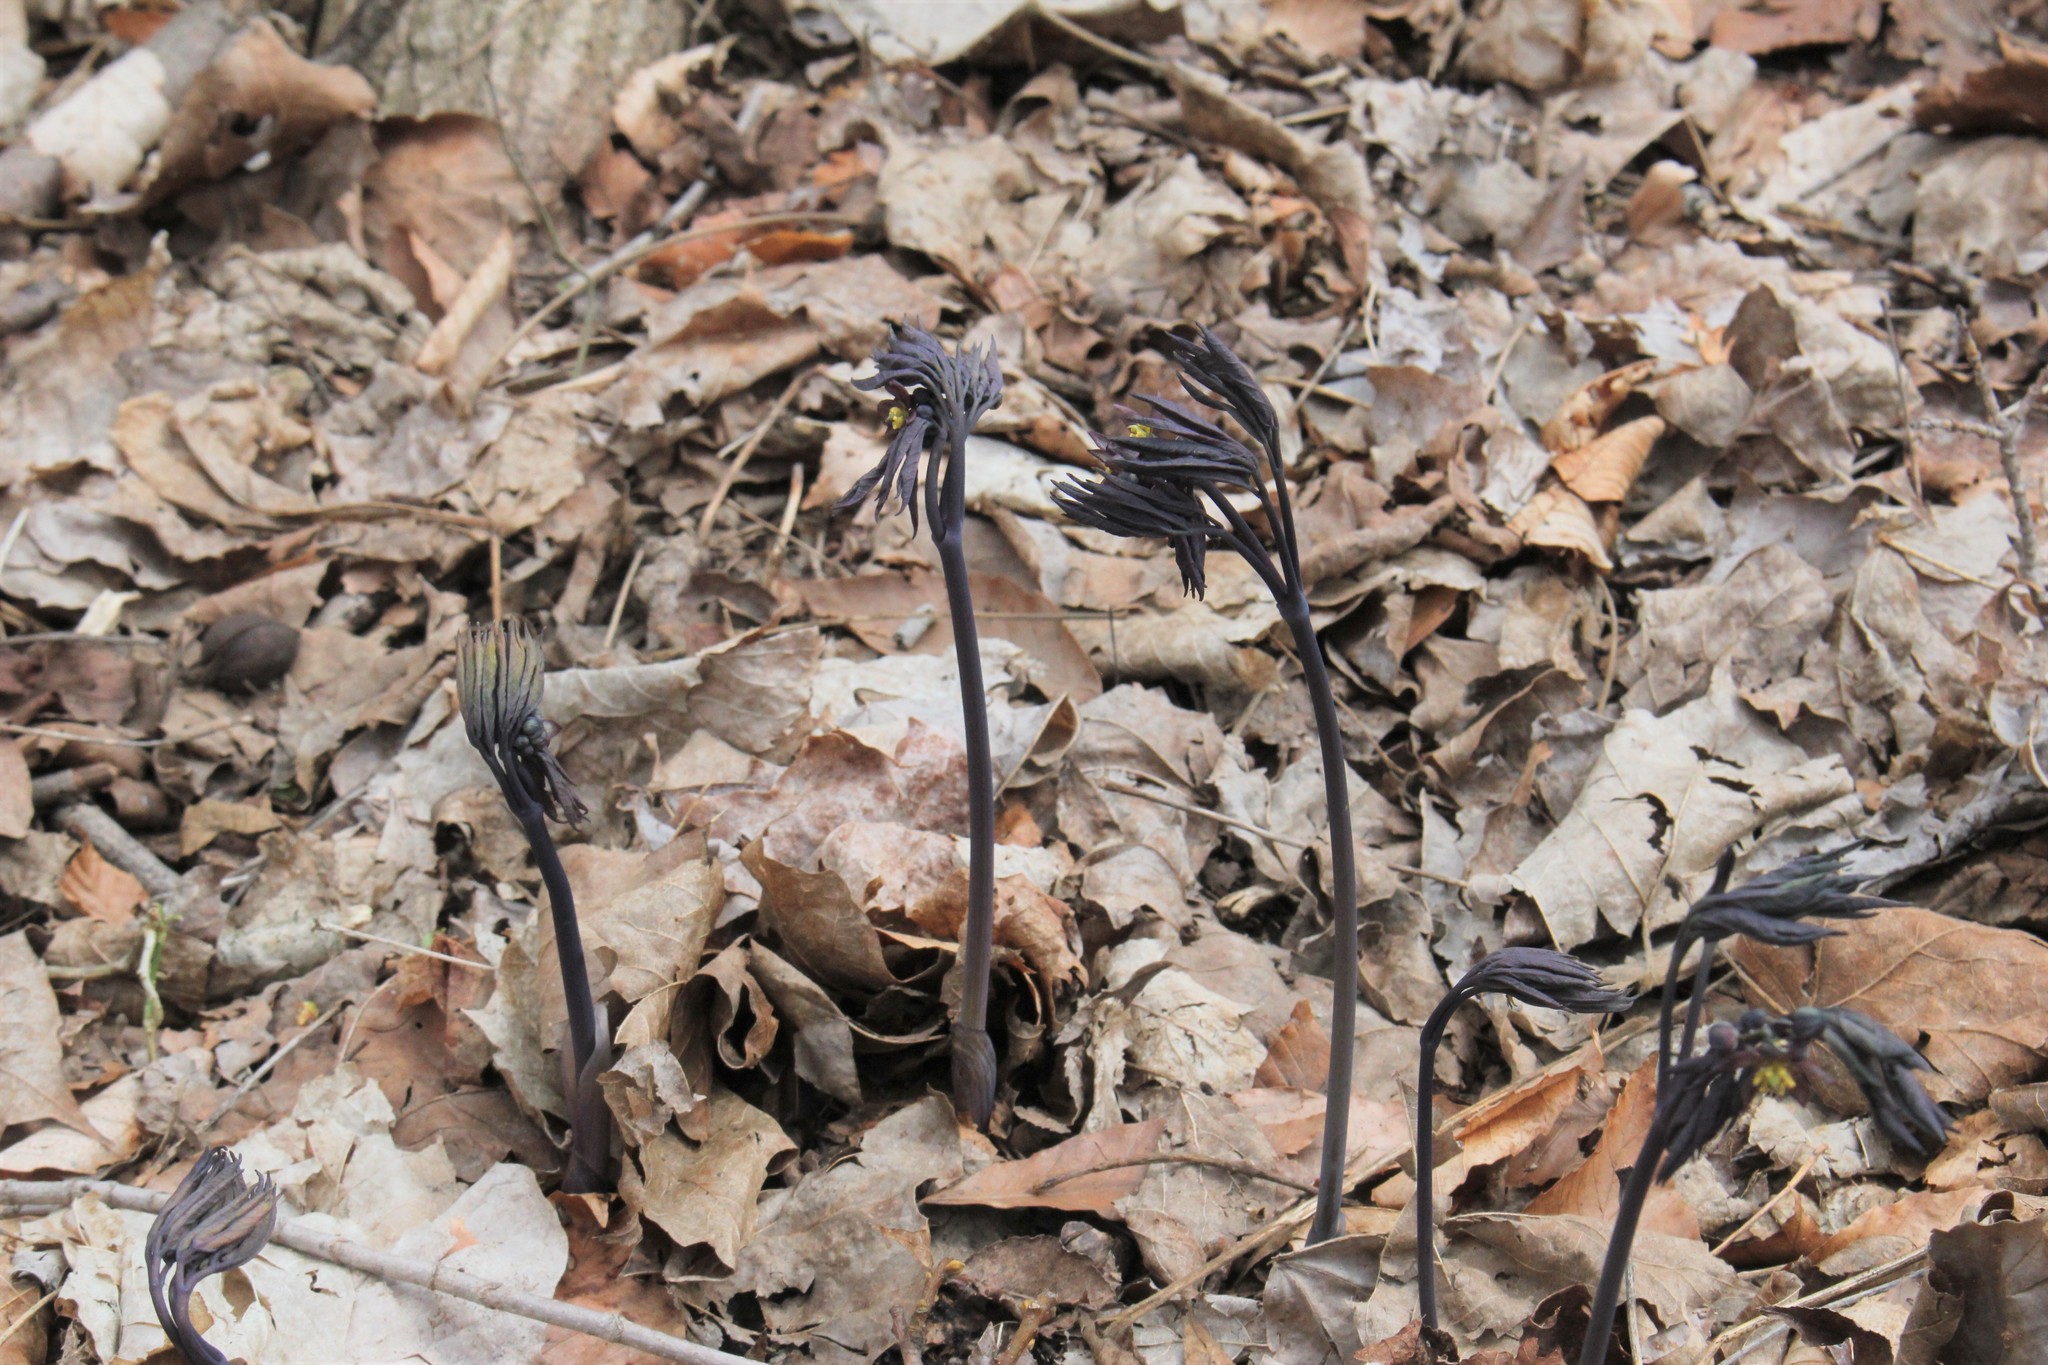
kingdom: Plantae
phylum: Tracheophyta
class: Magnoliopsida
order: Ranunculales
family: Berberidaceae
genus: Caulophyllum
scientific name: Caulophyllum giganteum
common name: Blue cohosh
